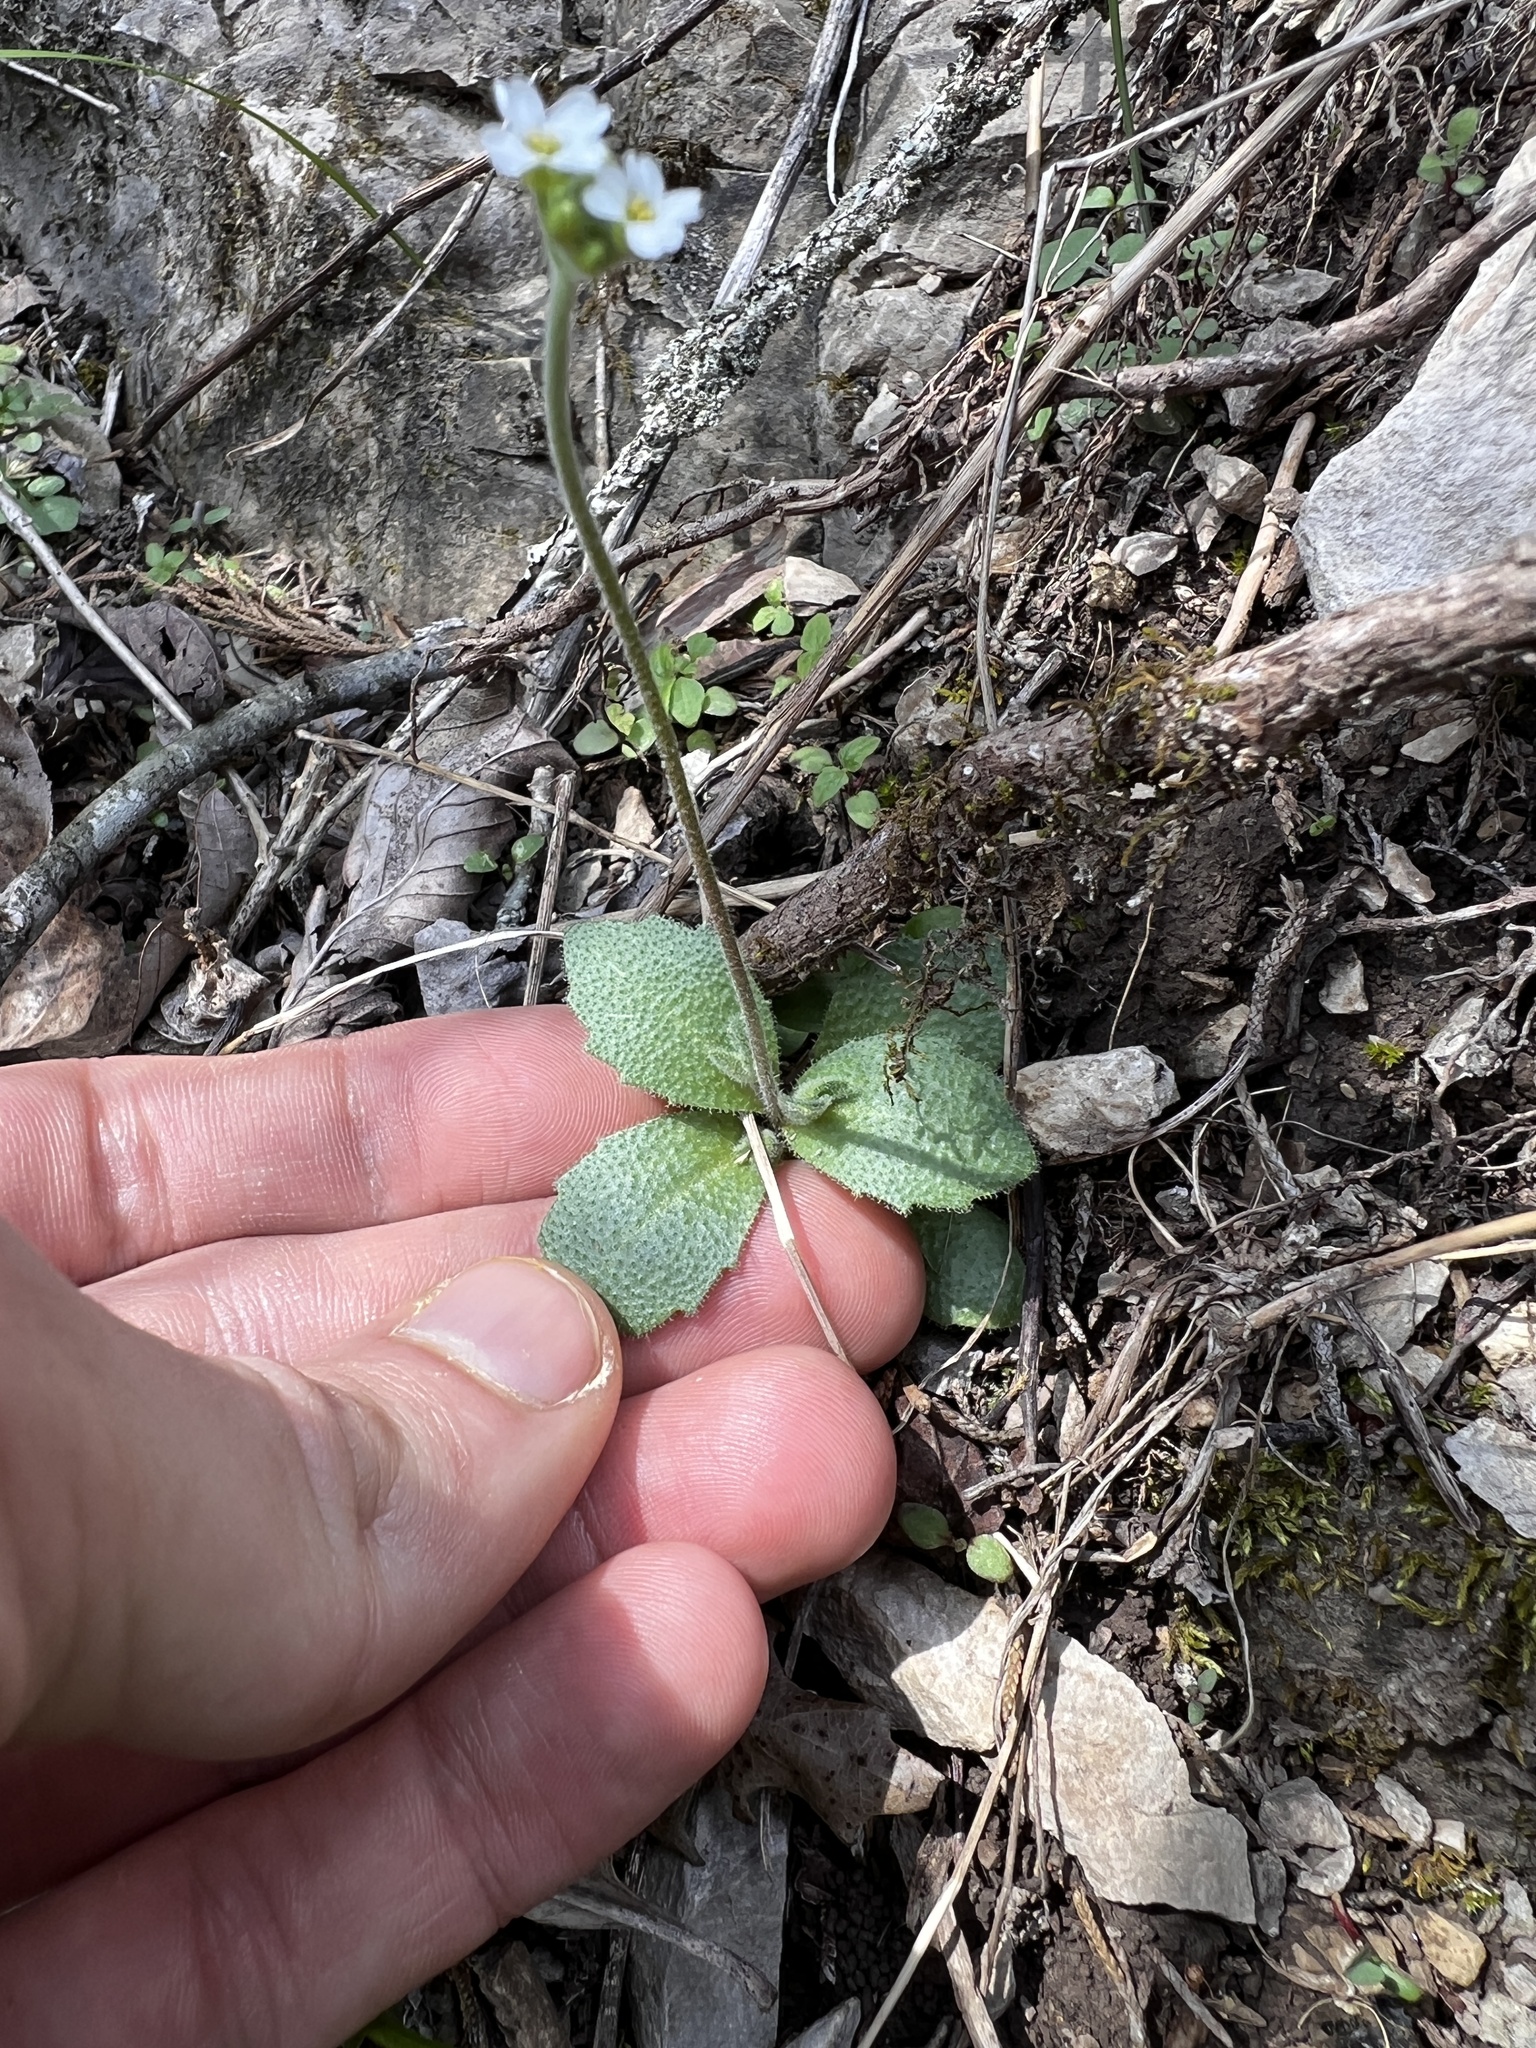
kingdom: Plantae
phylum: Tracheophyta
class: Magnoliopsida
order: Brassicales
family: Brassicaceae
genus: Tomostima
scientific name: Tomostima cuneifolia
